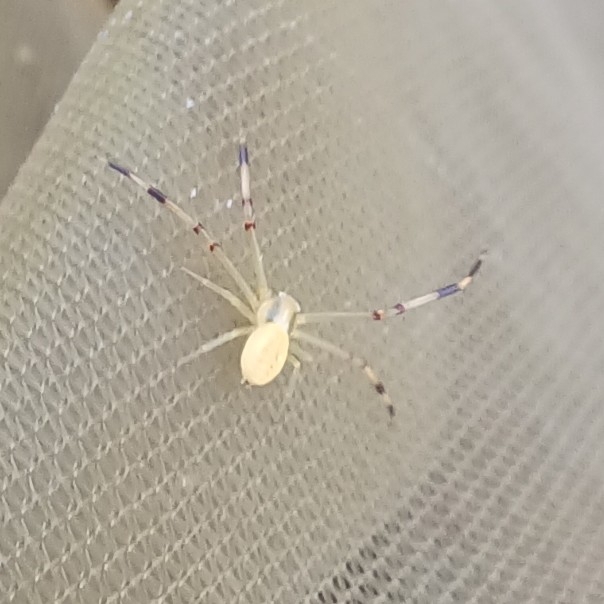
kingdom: Animalia
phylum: Arthropoda
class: Arachnida
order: Araneae
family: Thomisidae
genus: Runcinia
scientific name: Runcinia grammica
